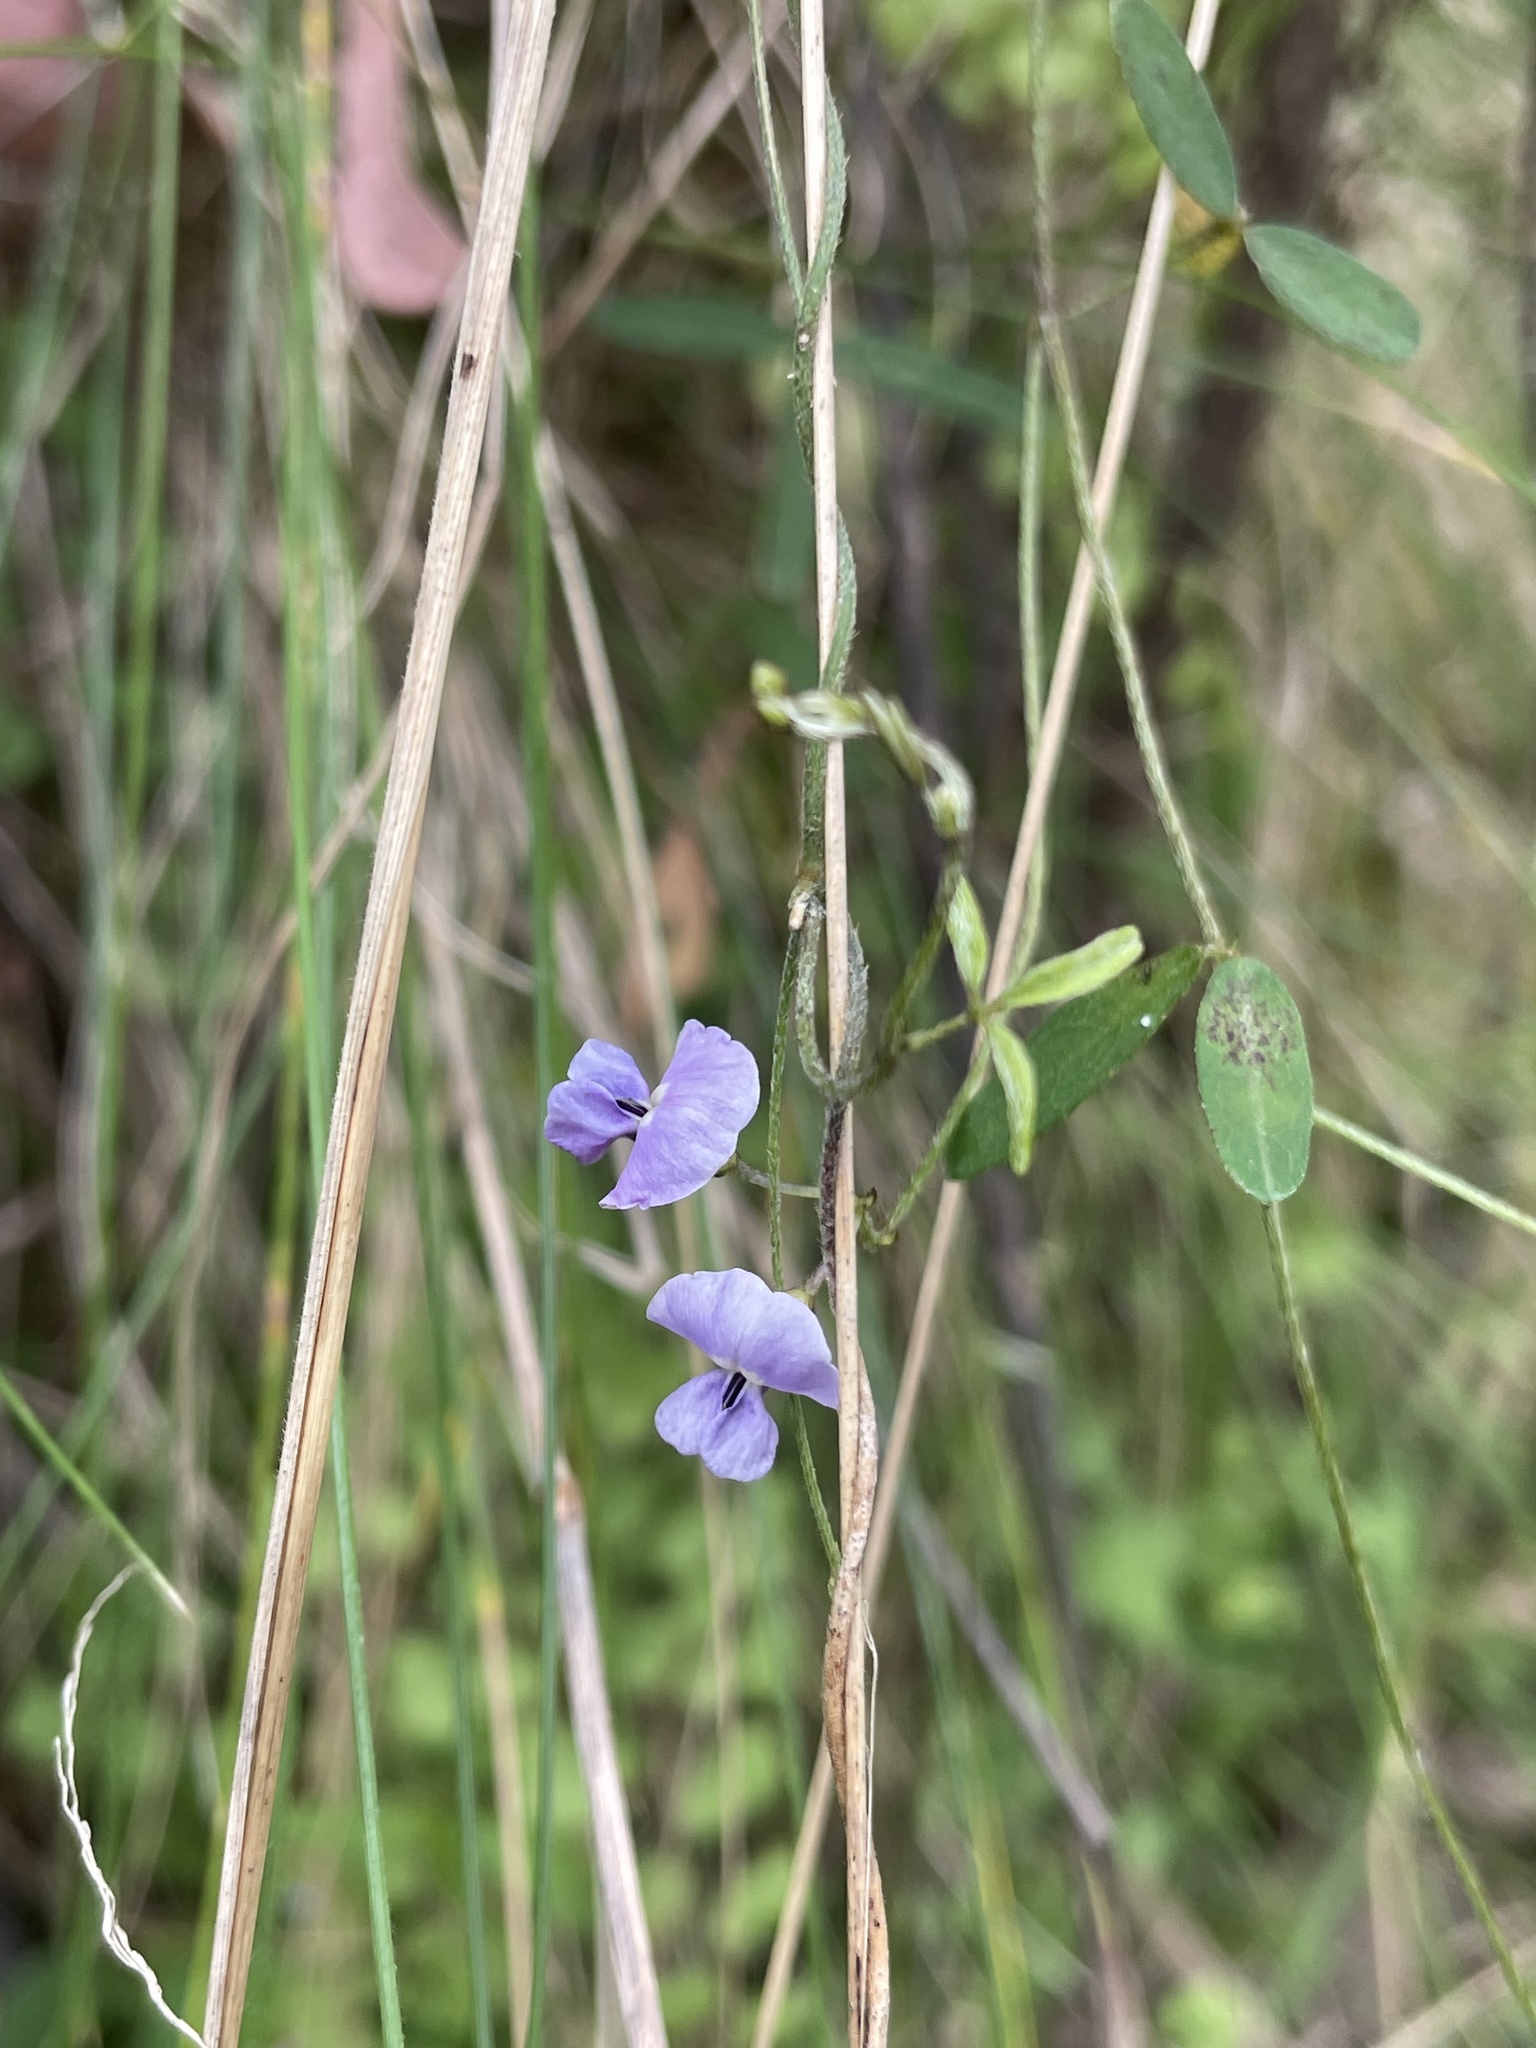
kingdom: Plantae
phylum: Tracheophyta
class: Magnoliopsida
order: Fabales
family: Fabaceae
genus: Glycine
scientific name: Glycine clandestina
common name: Twining glycine
